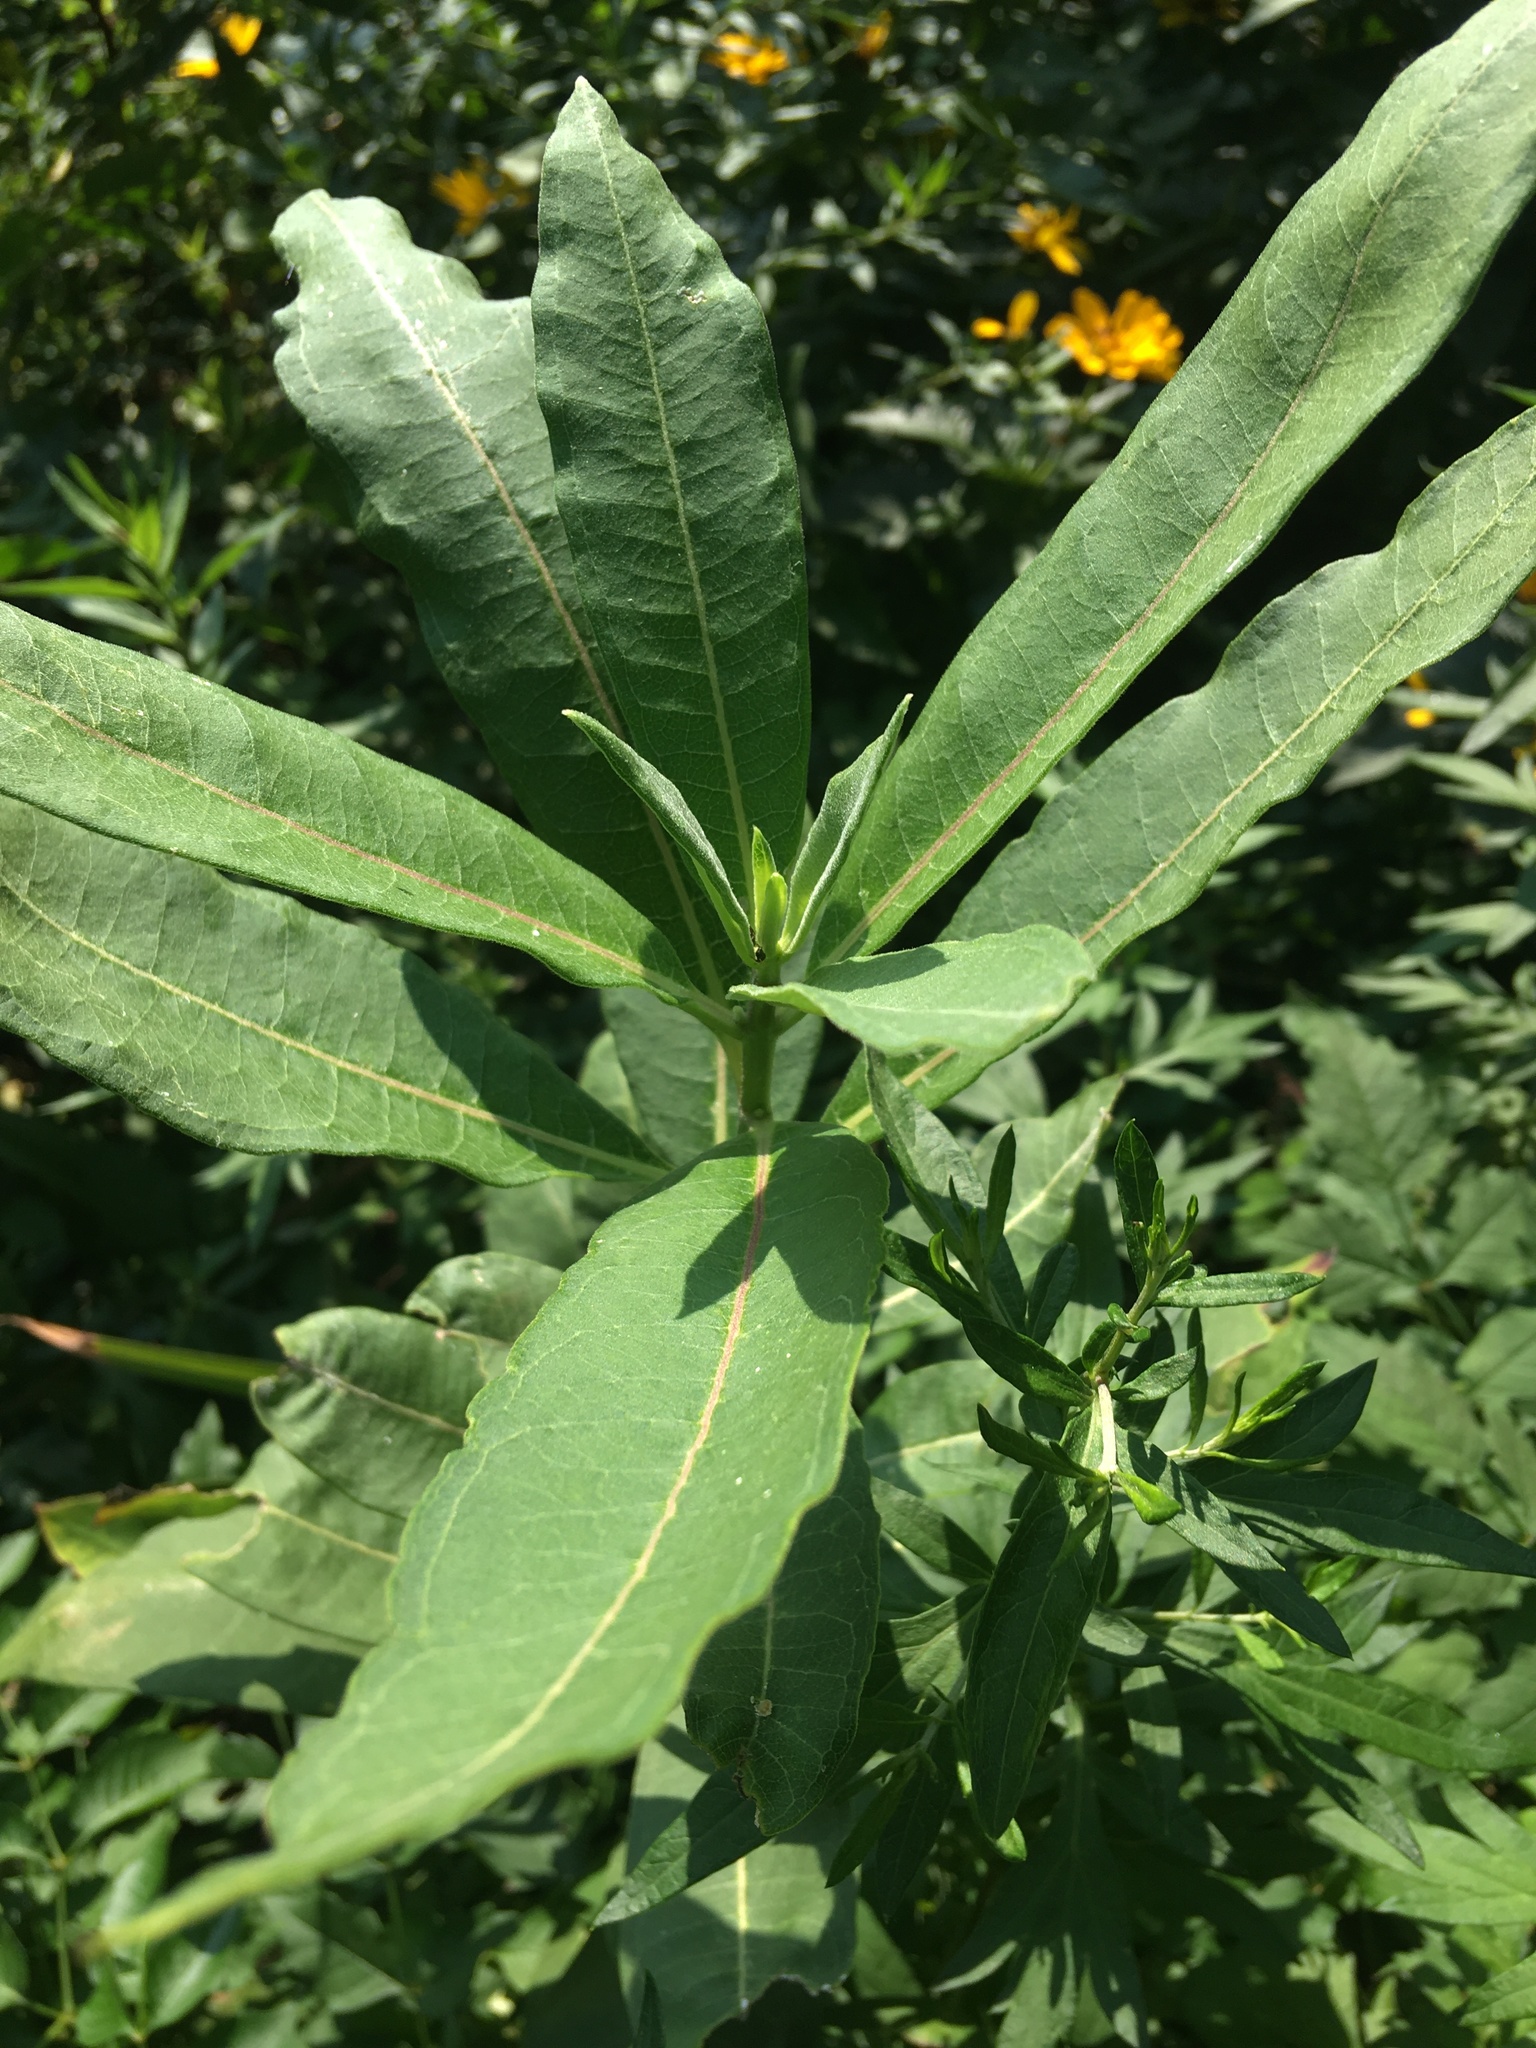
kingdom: Plantae
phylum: Tracheophyta
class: Magnoliopsida
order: Gentianales
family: Apocynaceae
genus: Asclepias
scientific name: Asclepias syriaca
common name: Common milkweed
